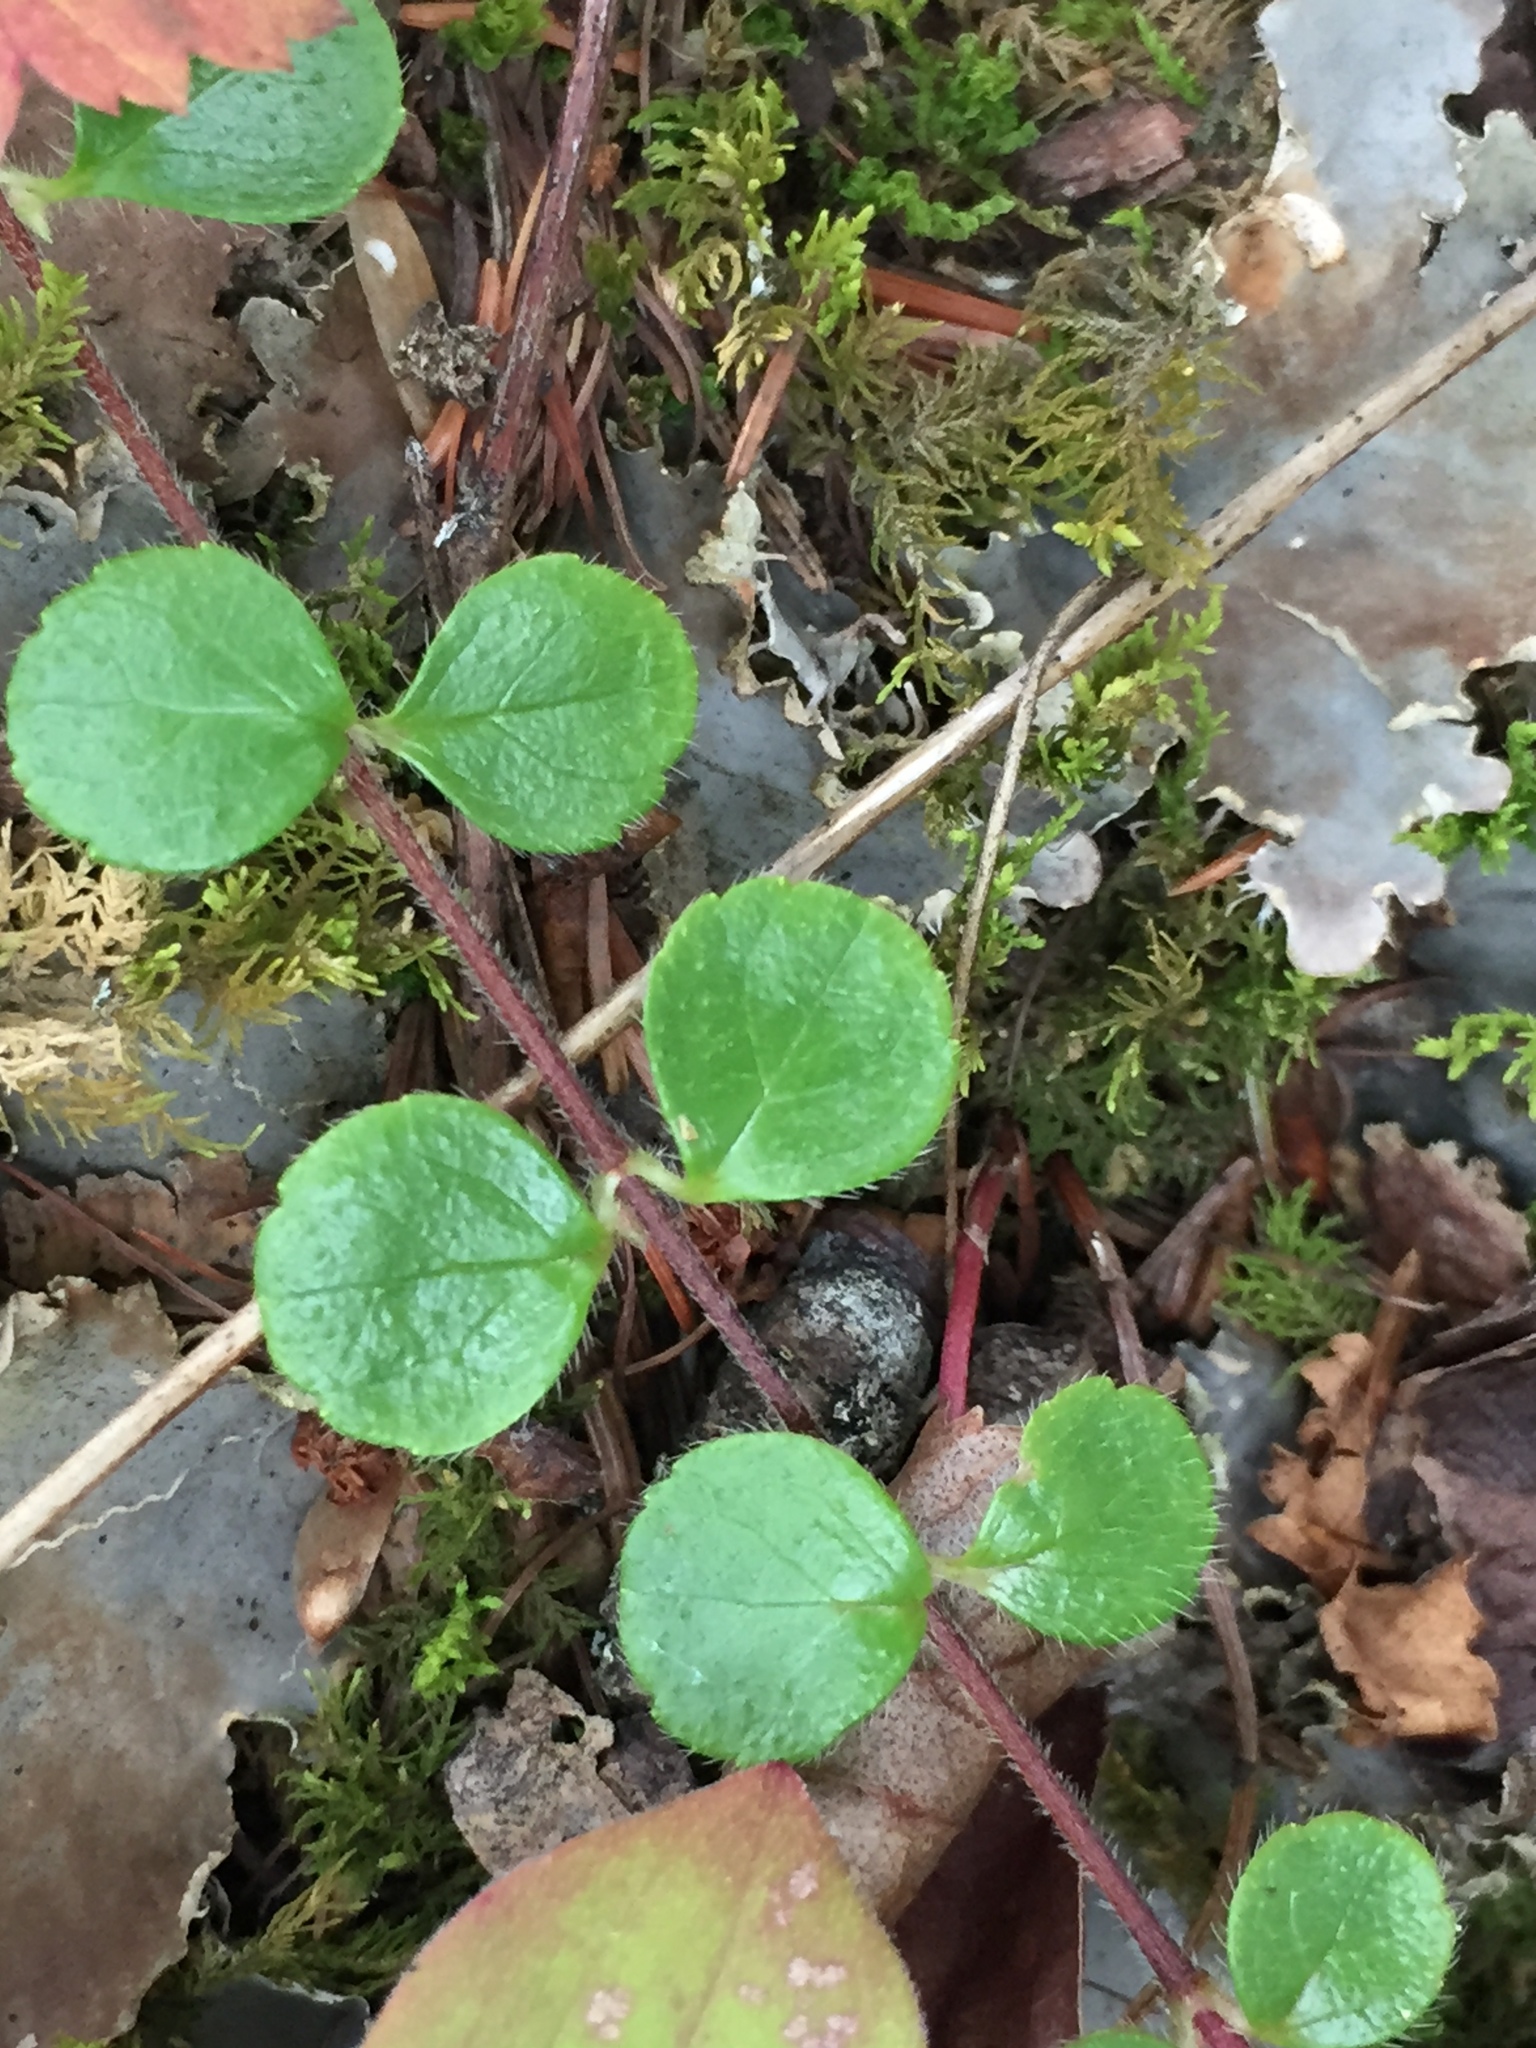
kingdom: Plantae
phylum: Tracheophyta
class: Magnoliopsida
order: Dipsacales
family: Caprifoliaceae
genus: Linnaea
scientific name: Linnaea borealis
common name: Twinflower
